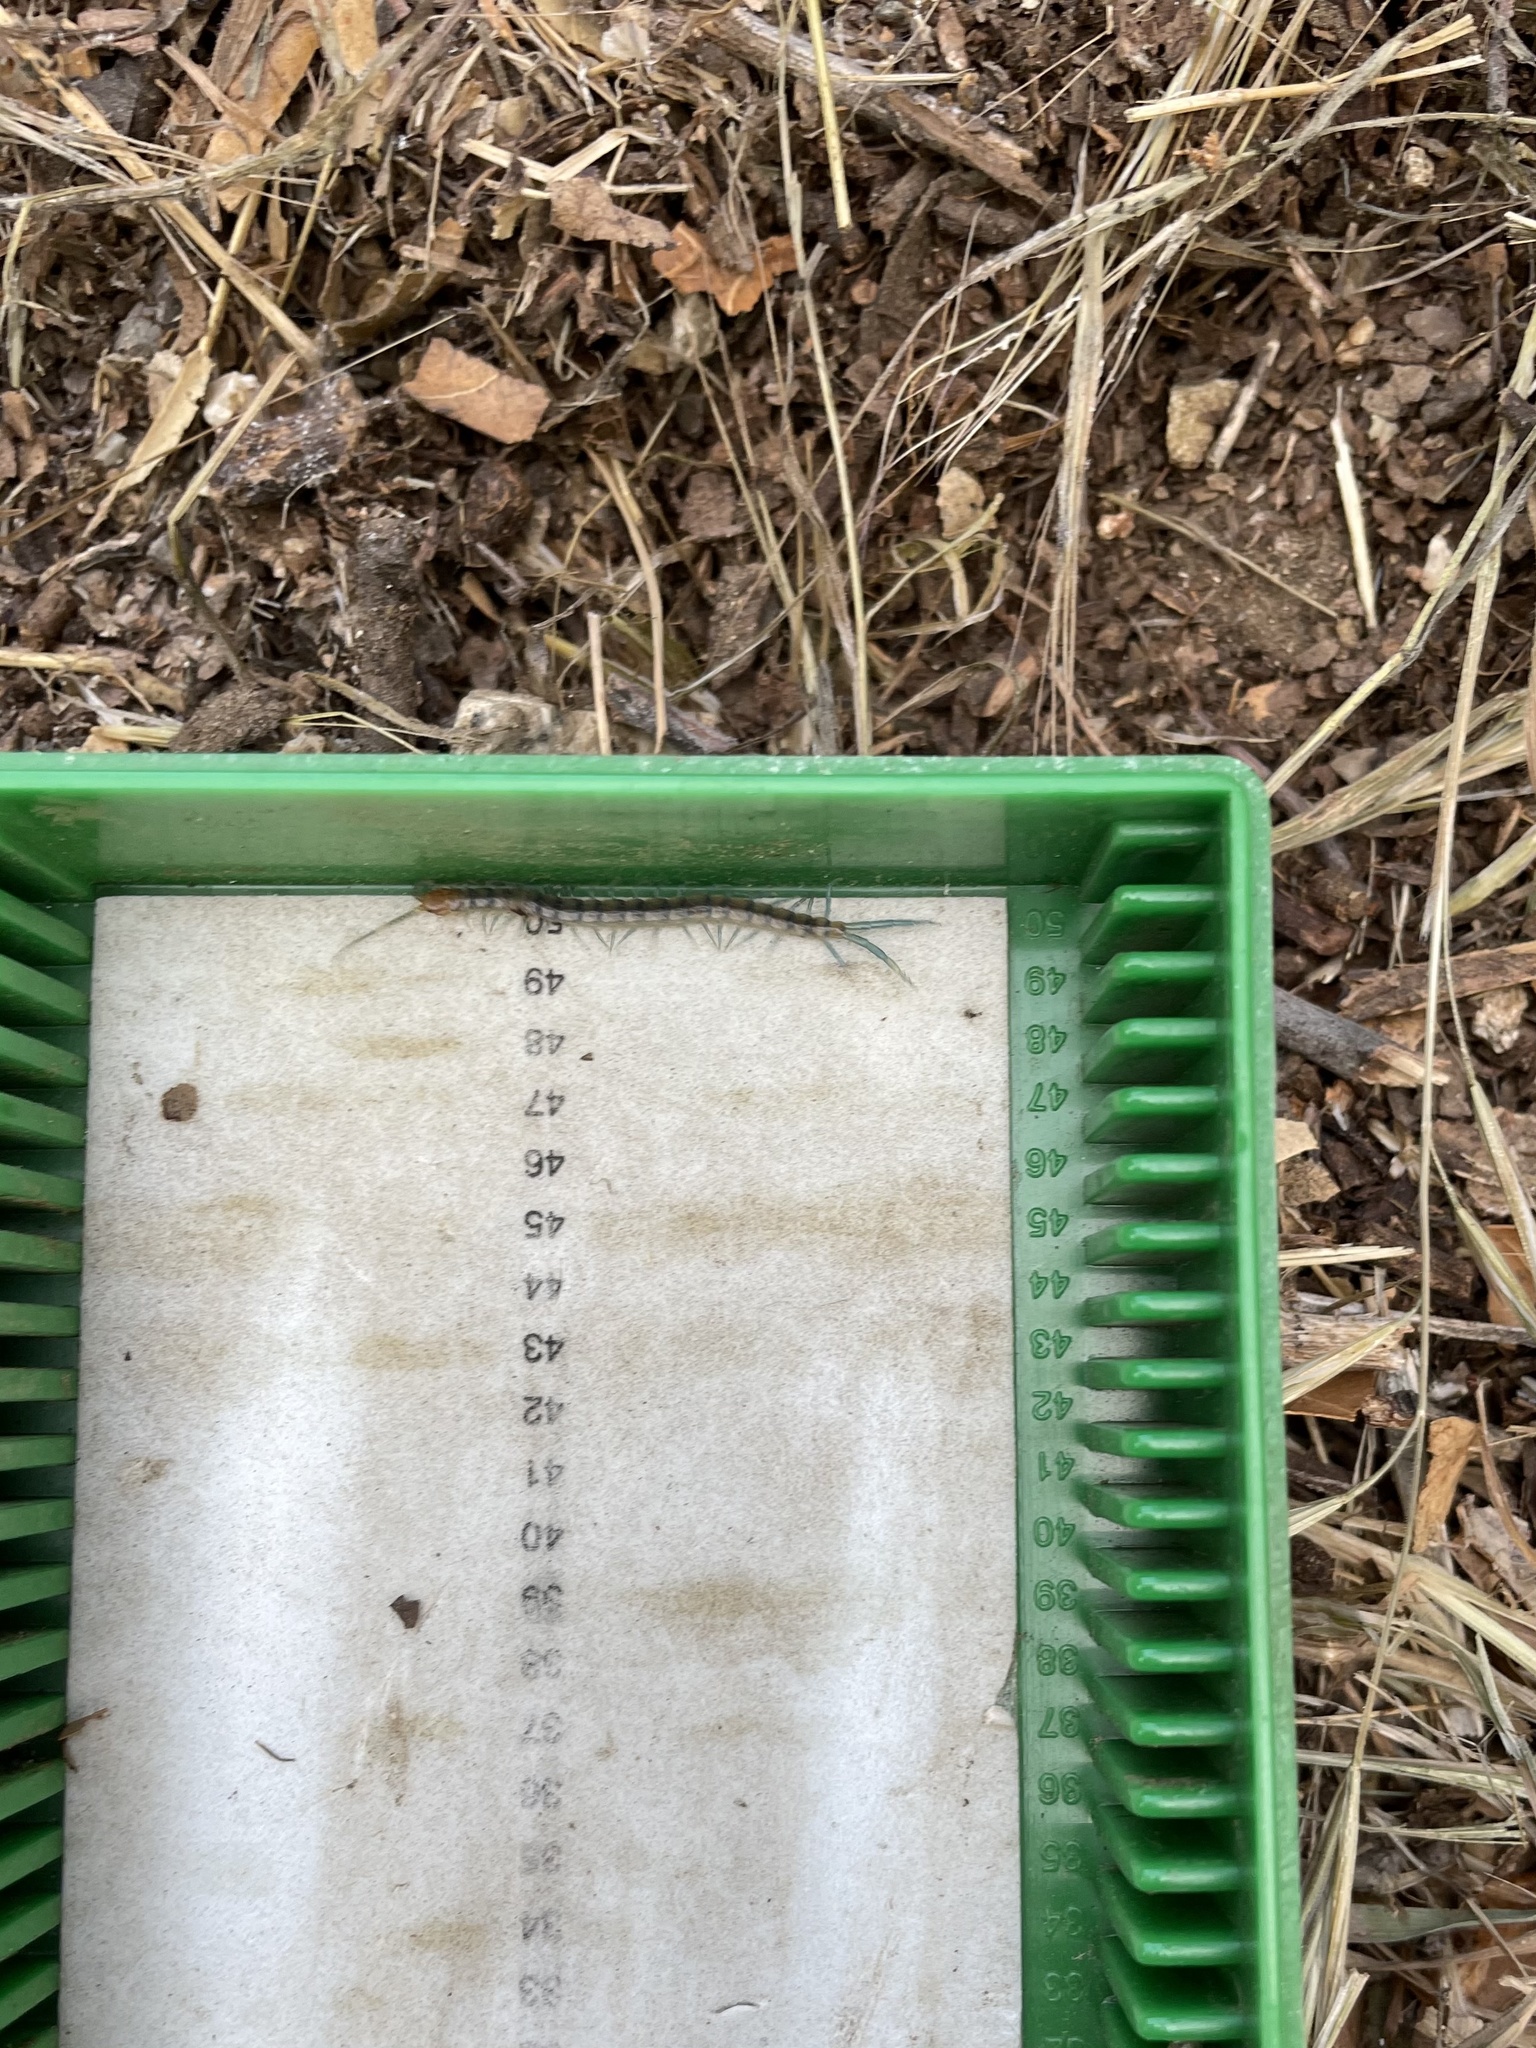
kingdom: Animalia
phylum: Arthropoda
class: Chilopoda
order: Scolopendromorpha
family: Scolopendridae
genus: Scolopendra
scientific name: Scolopendra polymorpha
